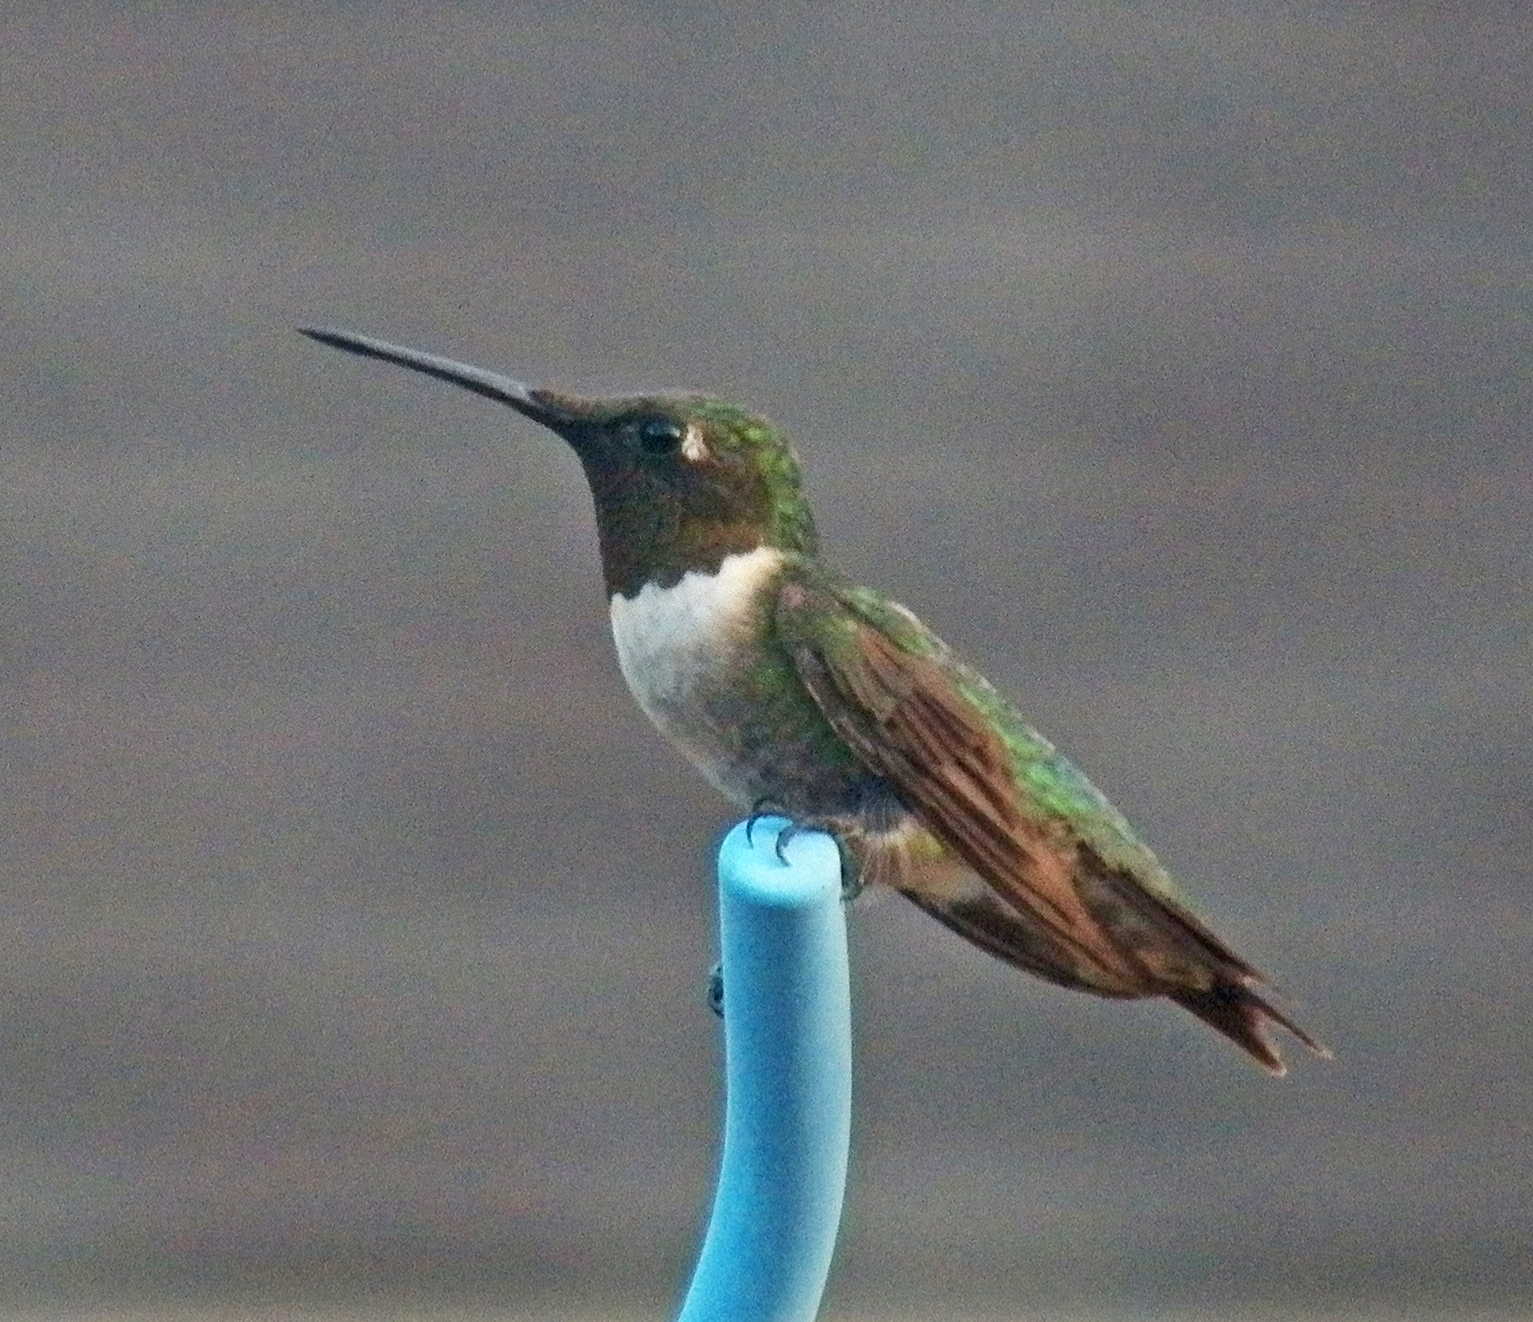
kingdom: Animalia
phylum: Chordata
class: Aves
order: Apodiformes
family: Trochilidae
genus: Archilochus
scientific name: Archilochus colubris
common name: Ruby-throated hummingbird
